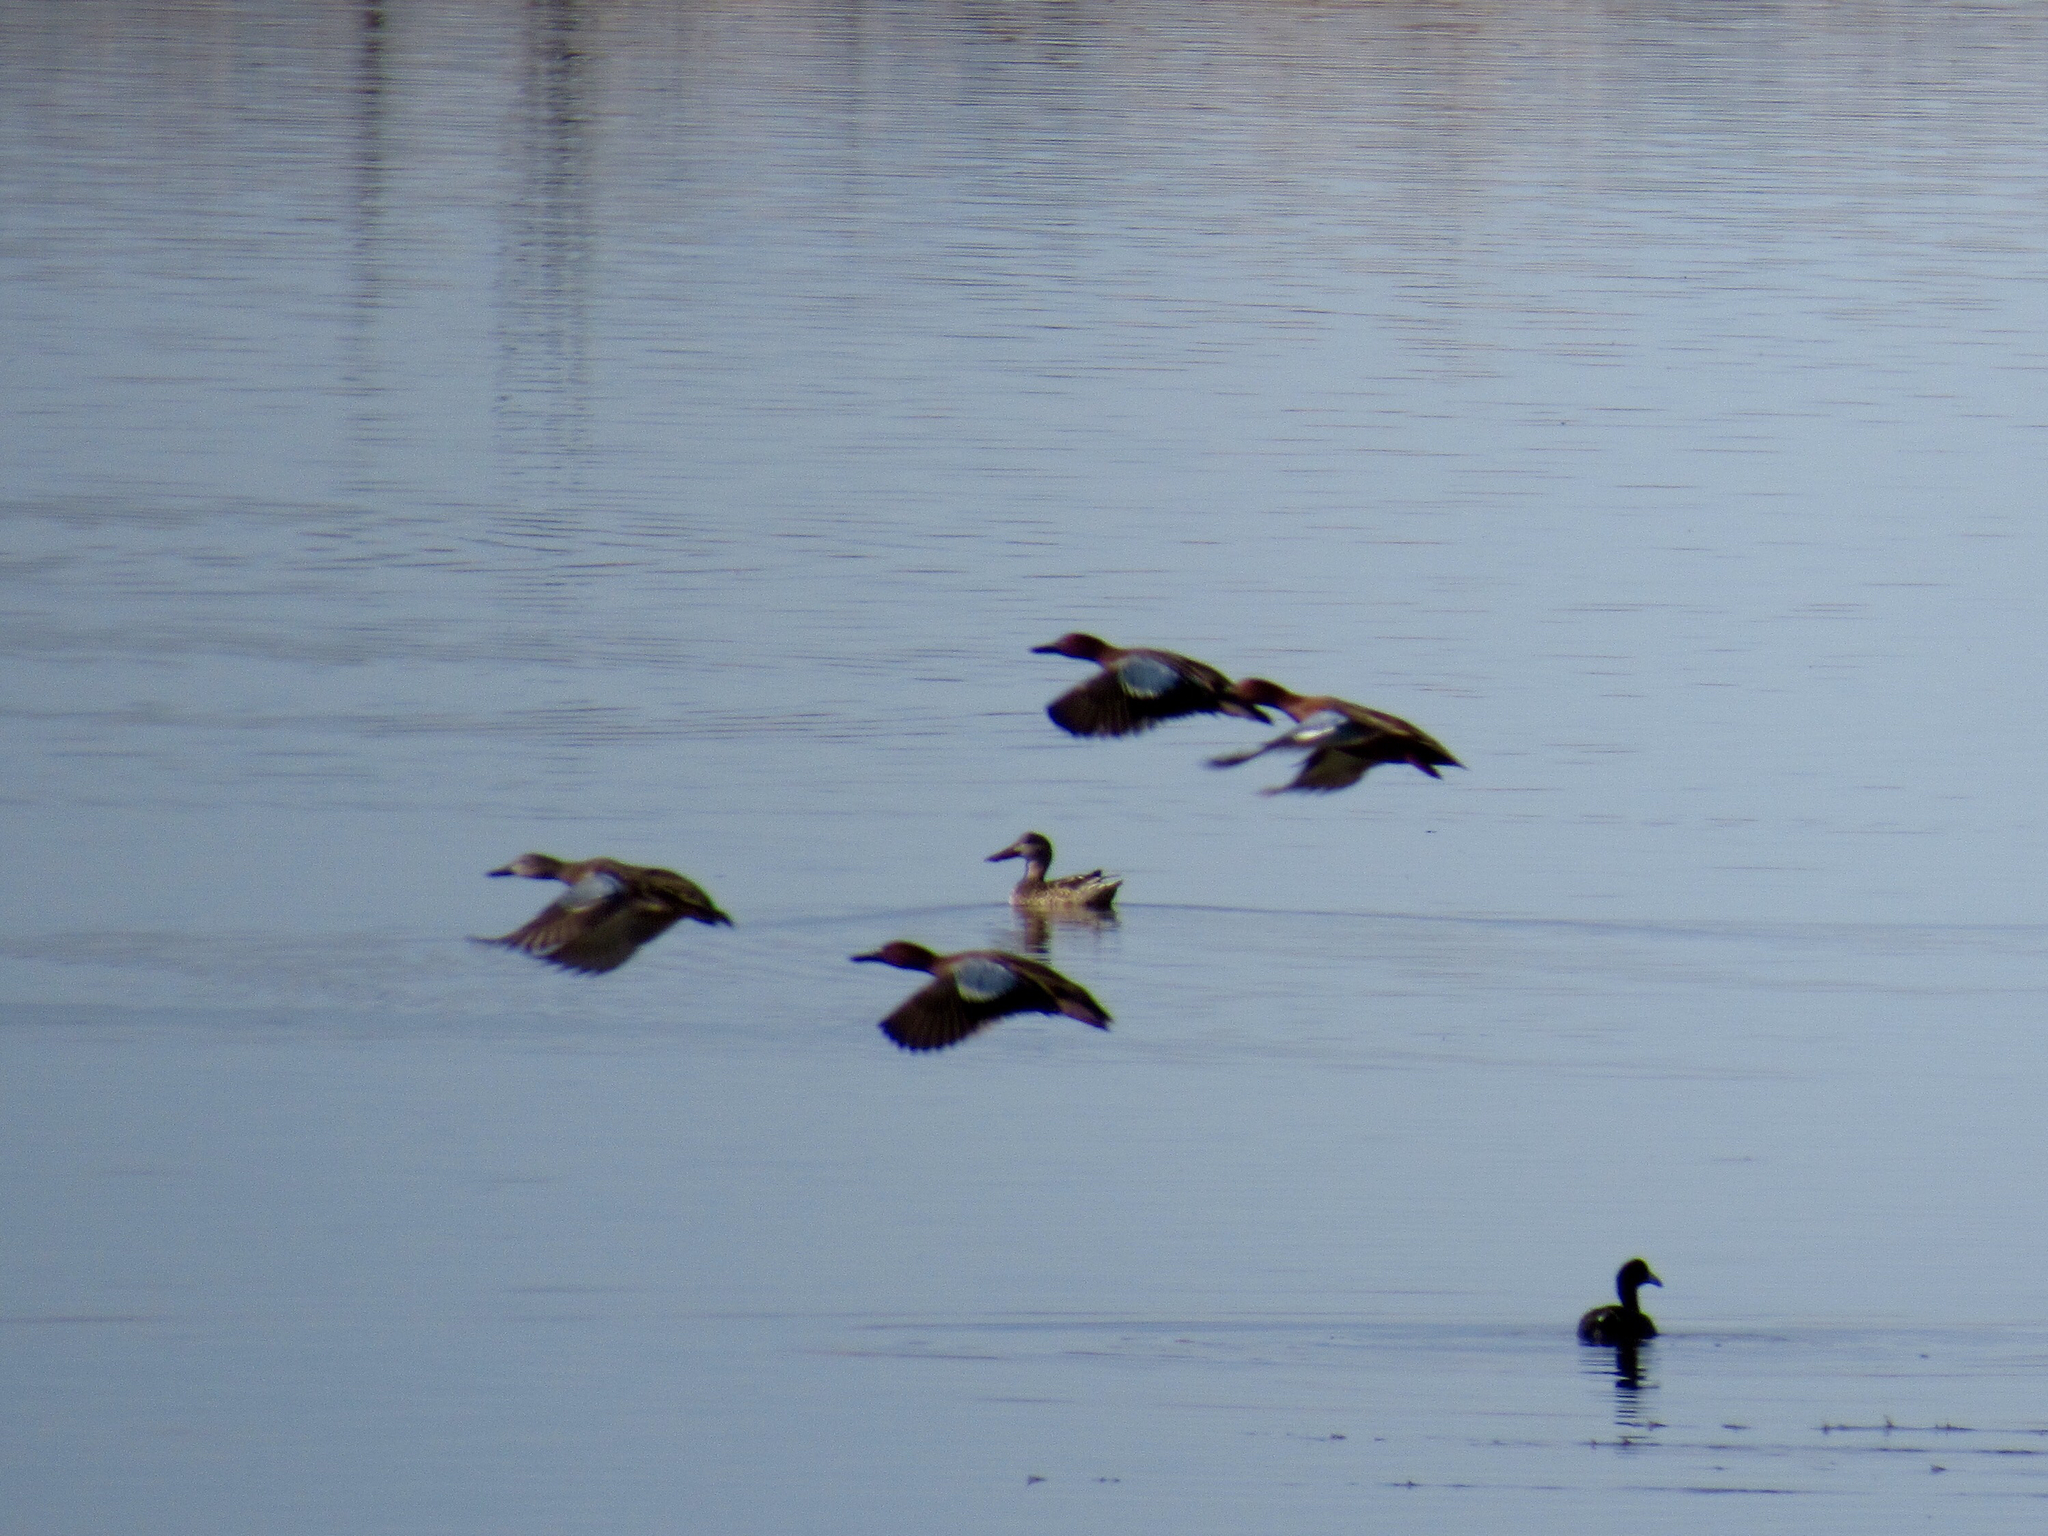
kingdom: Animalia
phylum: Chordata
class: Aves
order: Anseriformes
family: Anatidae
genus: Spatula
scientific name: Spatula cyanoptera
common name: Cinnamon teal
